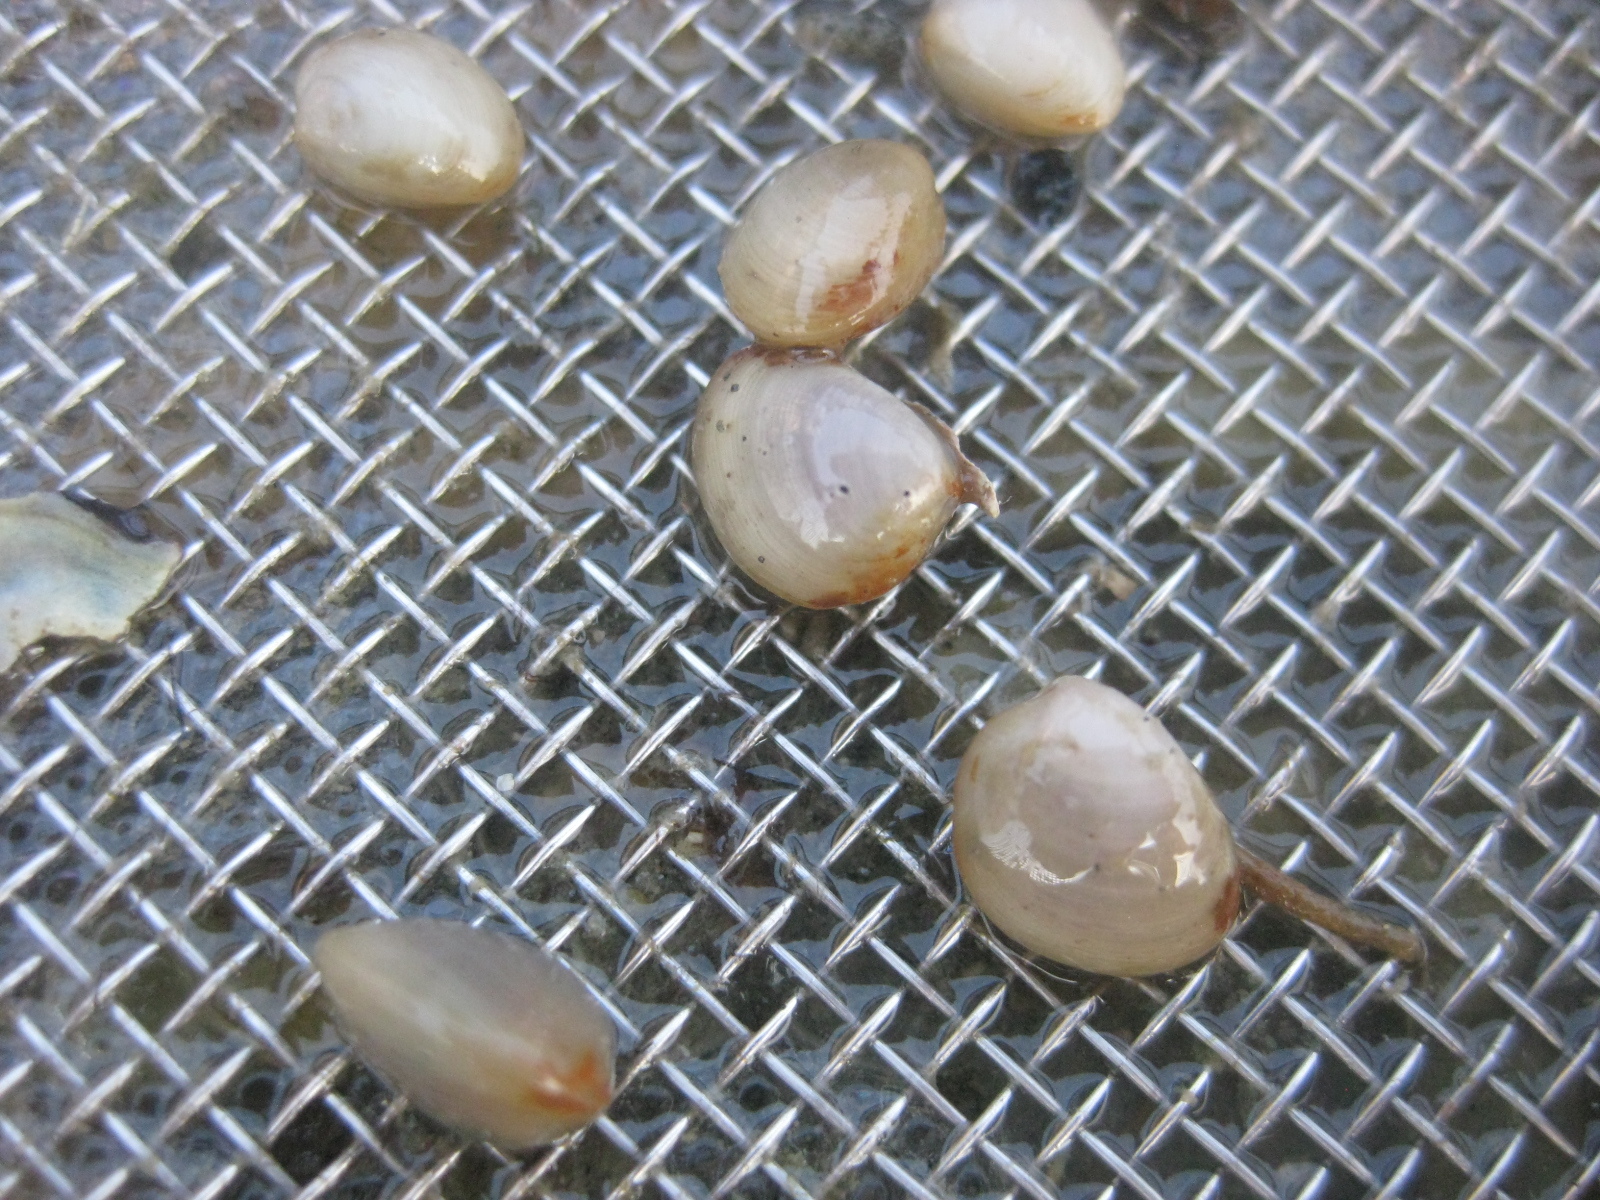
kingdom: Animalia
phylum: Mollusca
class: Bivalvia
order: Nuculida
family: Nuculidae
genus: Linucula
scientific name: Linucula hartvigiana
